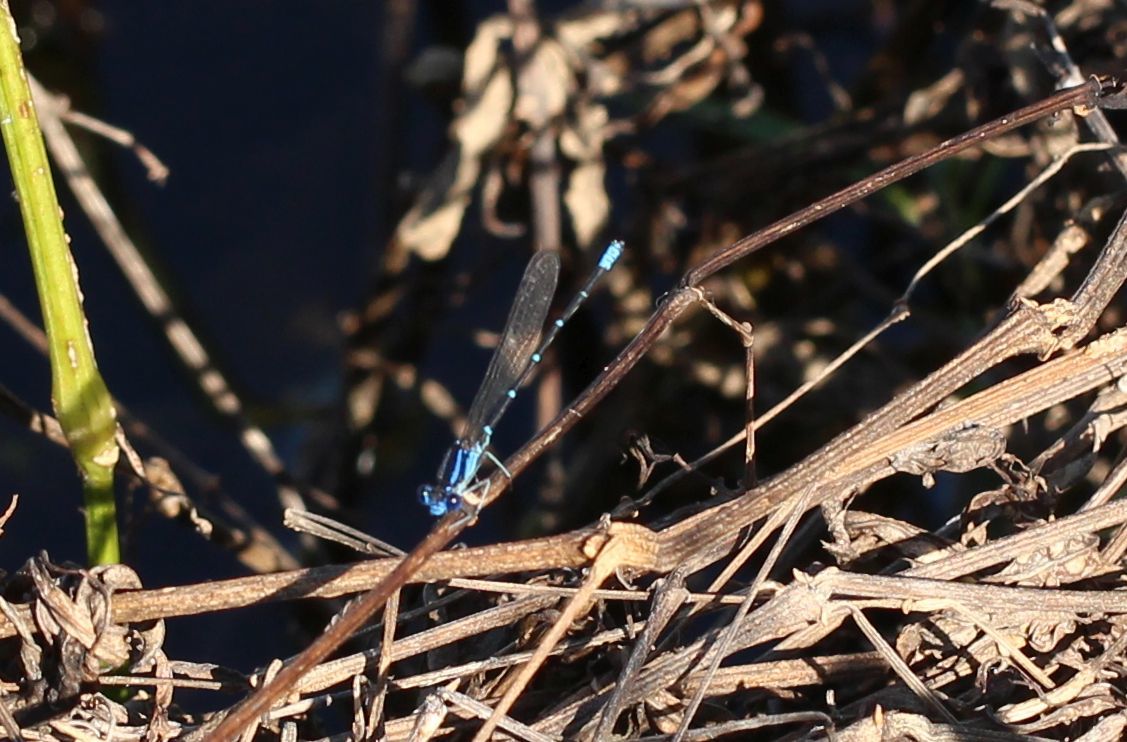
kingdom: Animalia
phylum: Arthropoda
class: Insecta
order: Odonata
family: Coenagrionidae
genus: Argia
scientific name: Argia sedula
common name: Blue-ringed dancer
